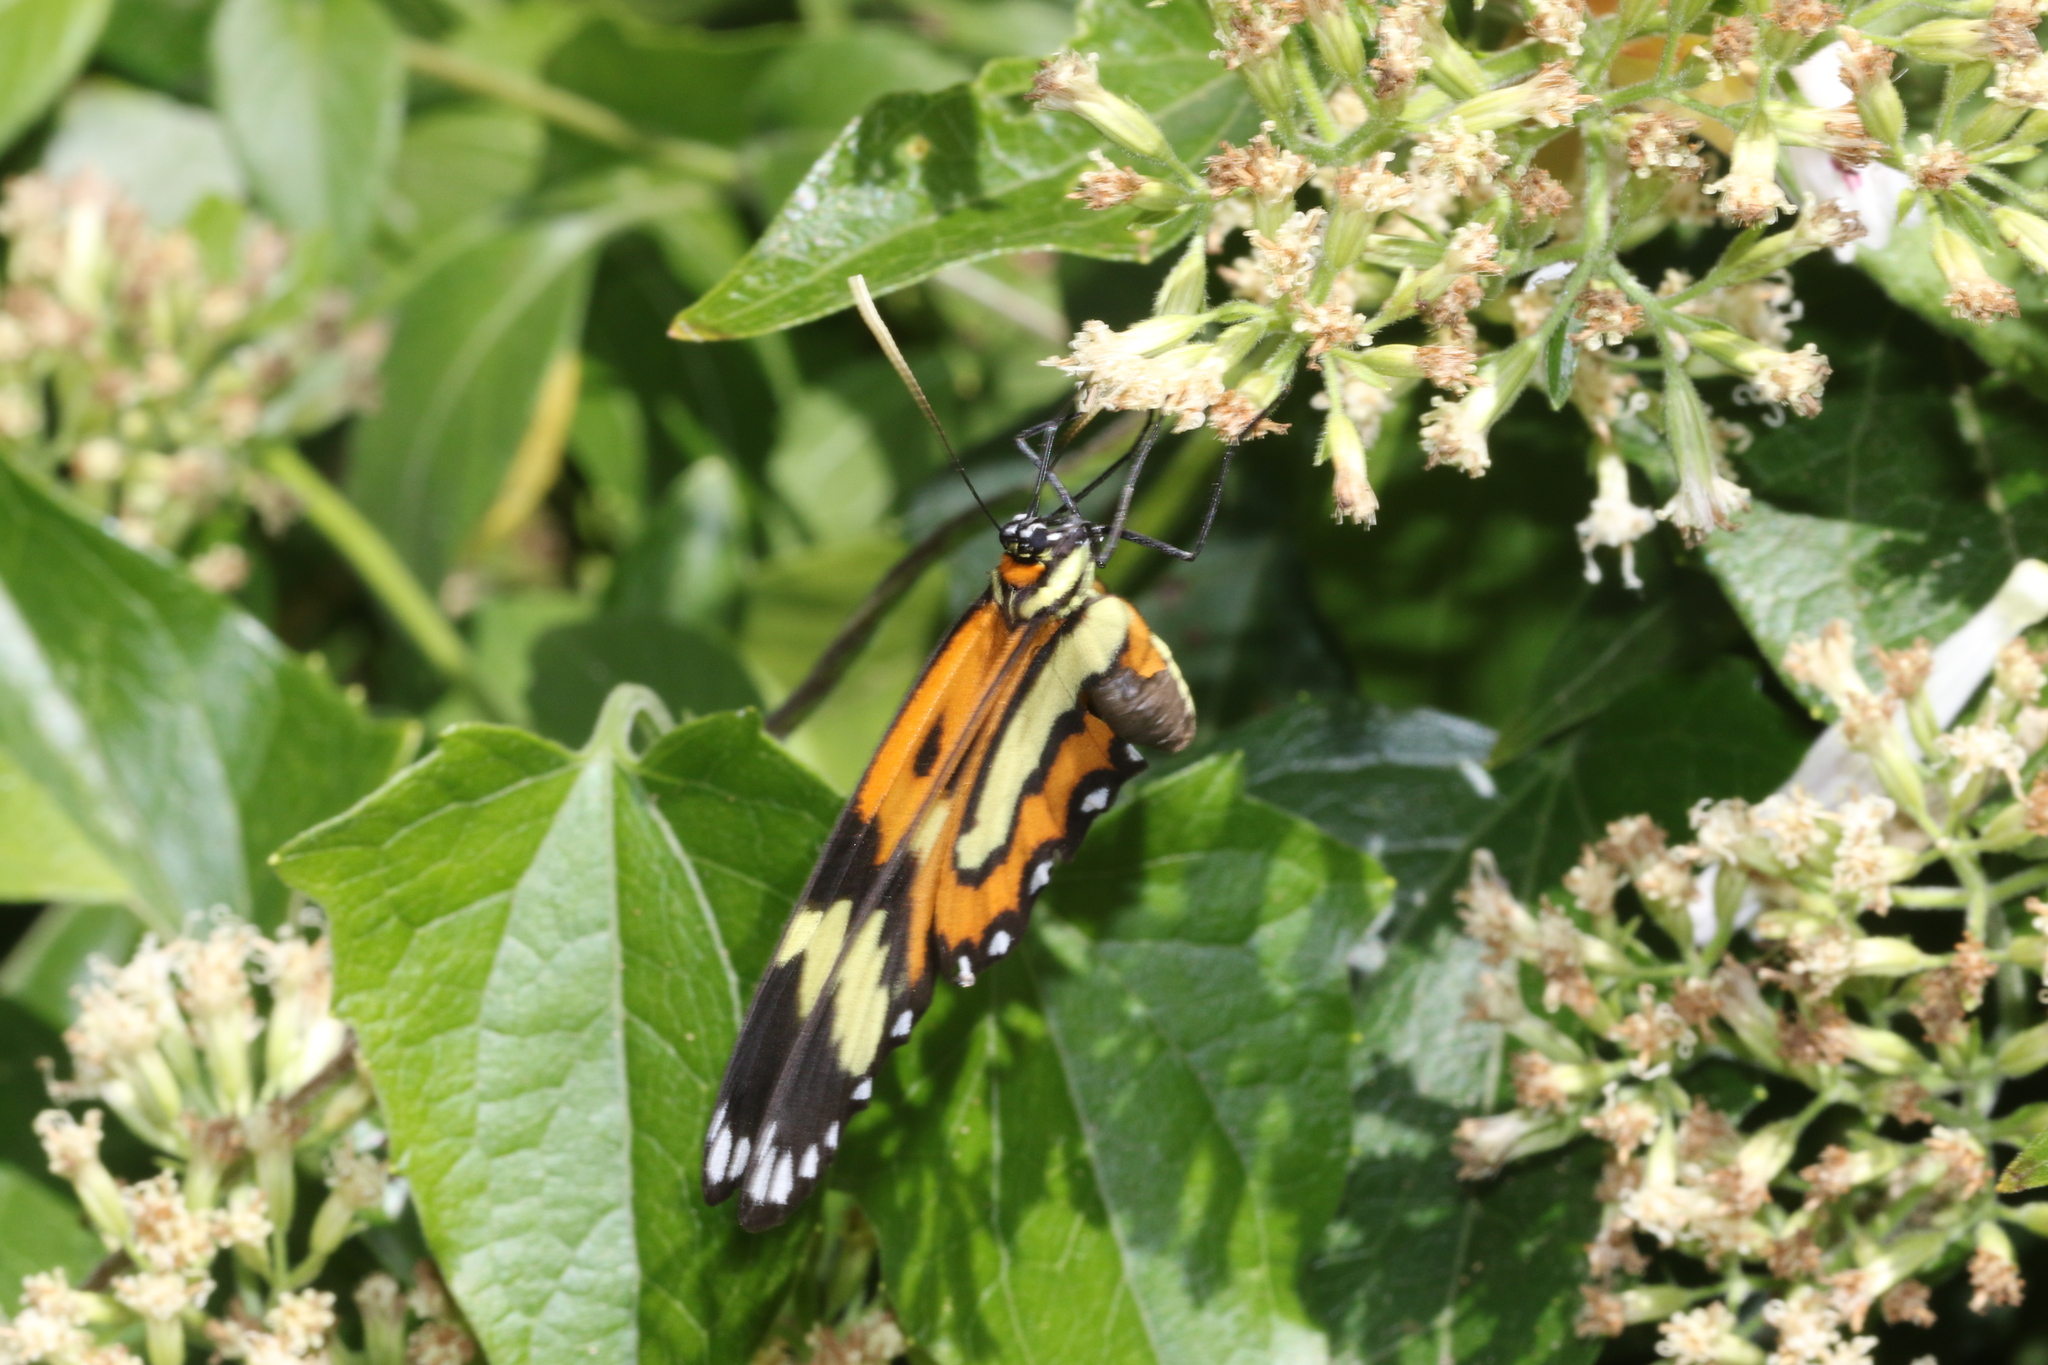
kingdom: Animalia
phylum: Arthropoda
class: Insecta
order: Lepidoptera
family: Nymphalidae
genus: Placidina
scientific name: Placidina euryanassa
